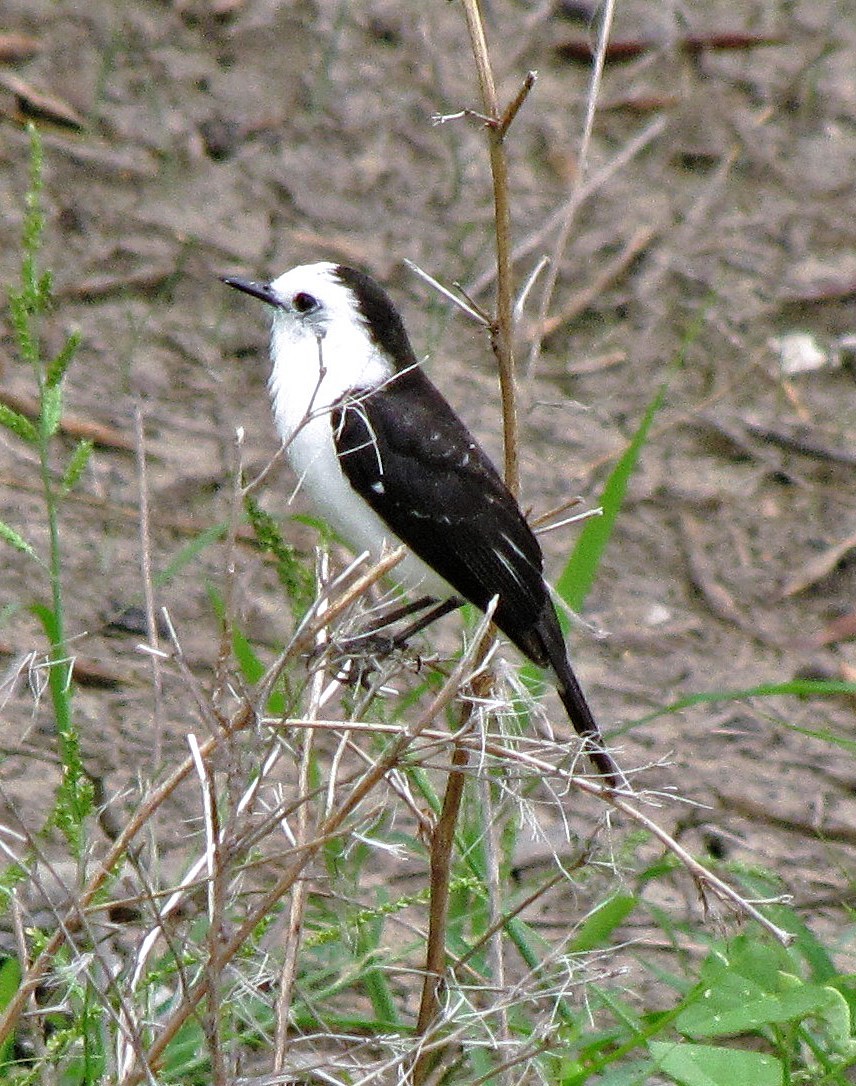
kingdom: Animalia
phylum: Chordata
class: Aves
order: Passeriformes
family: Tyrannidae
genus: Fluvicola
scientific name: Fluvicola pica
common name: Pied water-tyrant
